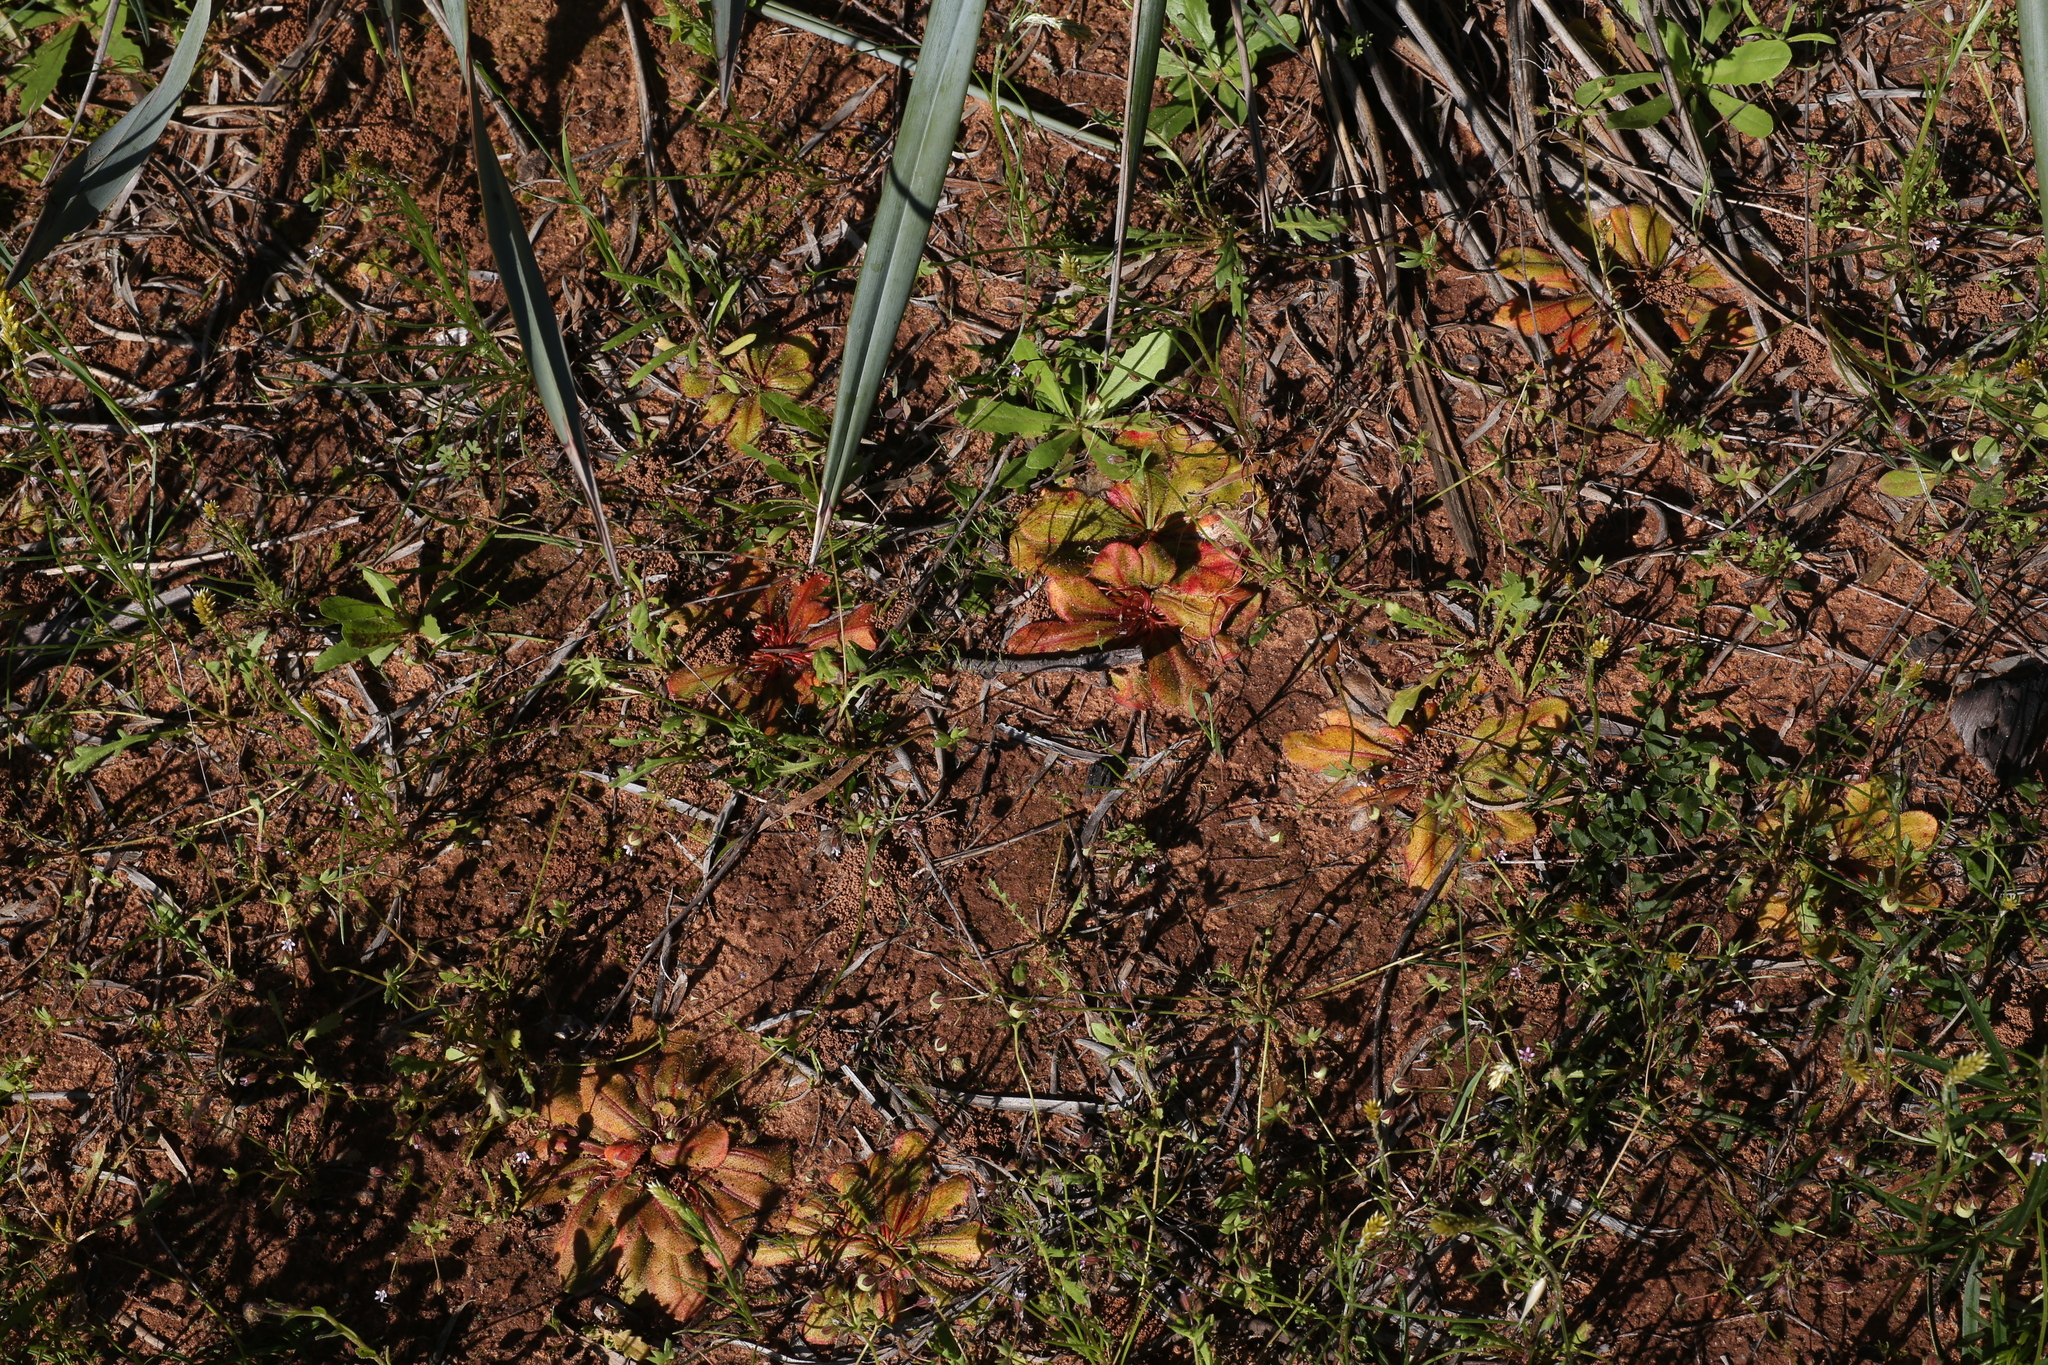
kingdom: Plantae
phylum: Tracheophyta
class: Magnoliopsida
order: Caryophyllales
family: Droseraceae
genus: Drosera
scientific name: Drosera bulbosa
